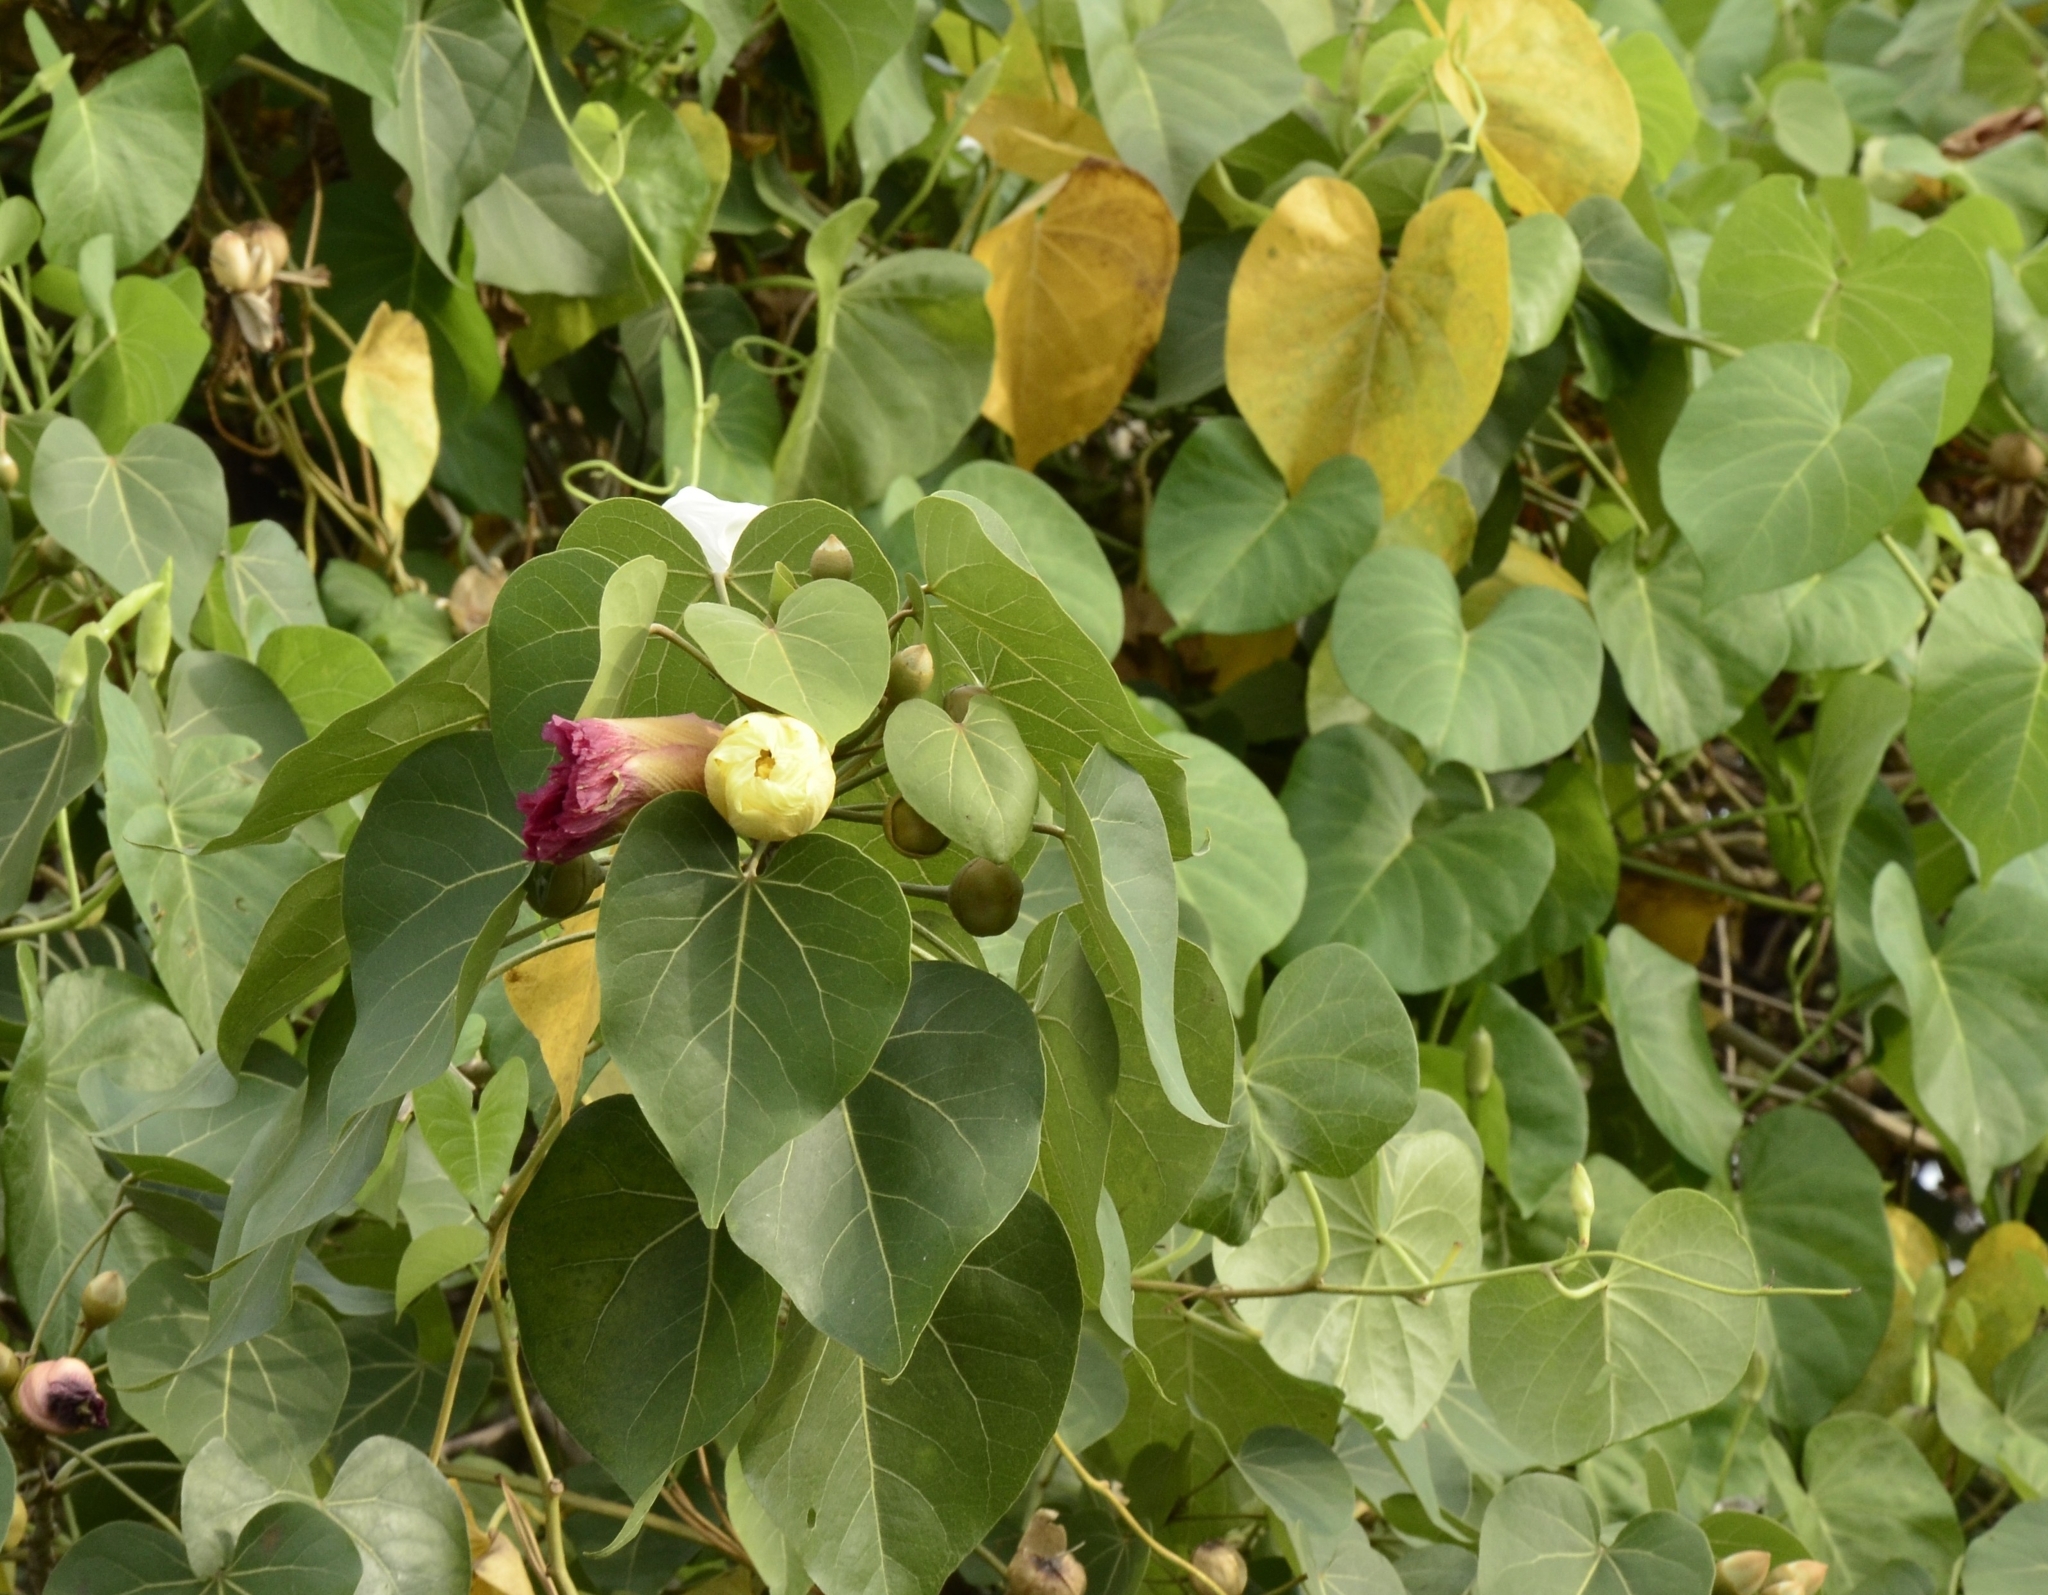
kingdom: Plantae
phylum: Tracheophyta
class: Magnoliopsida
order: Malvales
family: Malvaceae
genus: Thespesia
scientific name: Thespesia populnea
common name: Seaside mahoe
